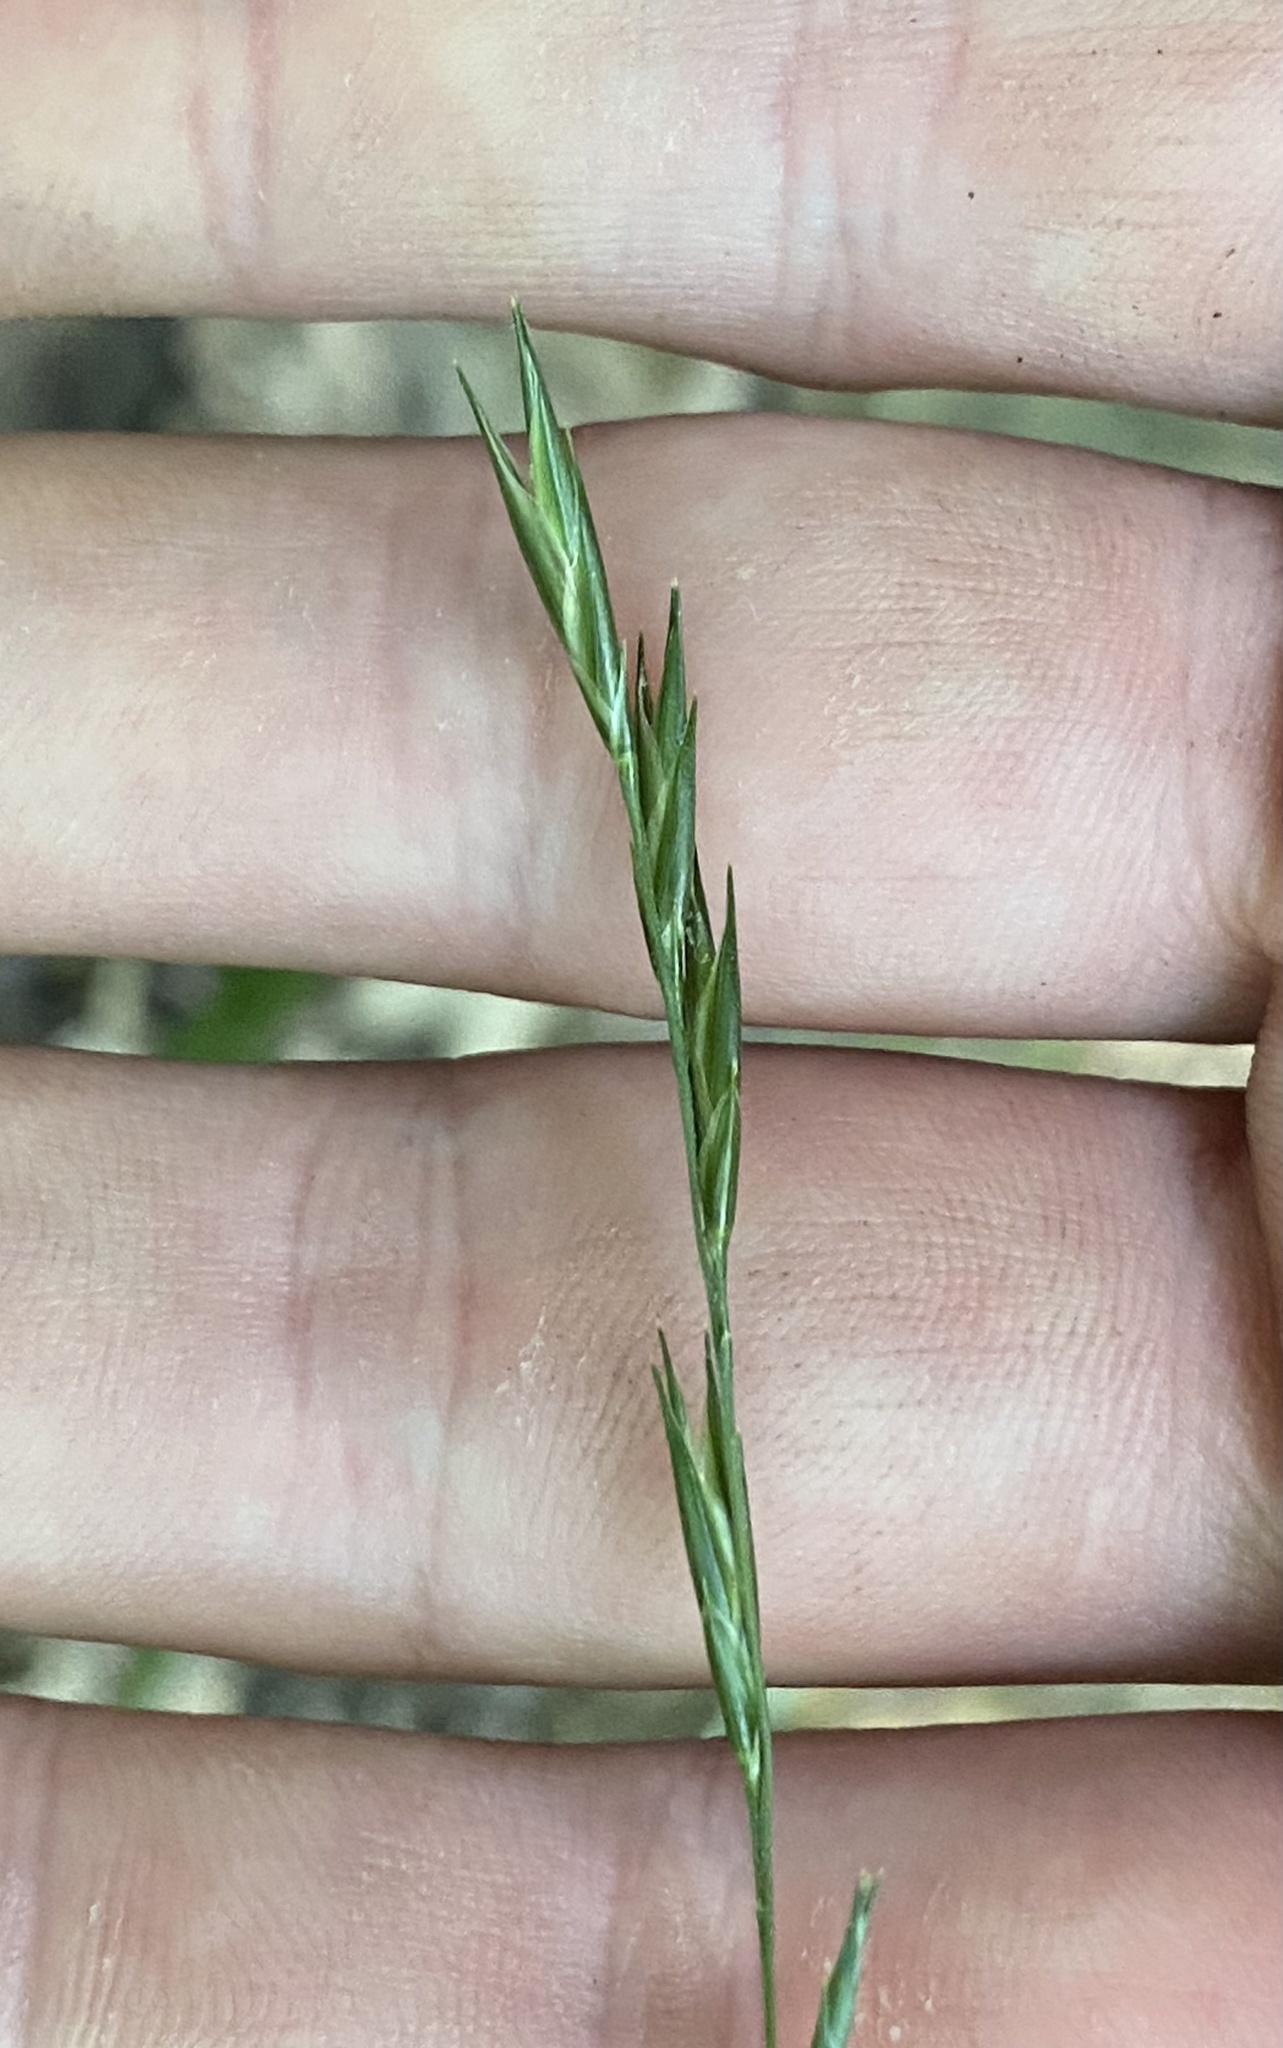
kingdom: Plantae
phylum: Tracheophyta
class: Liliopsida
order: Poales
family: Poaceae
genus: Diarrhena
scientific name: Diarrhena americana
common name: American beakgrain
